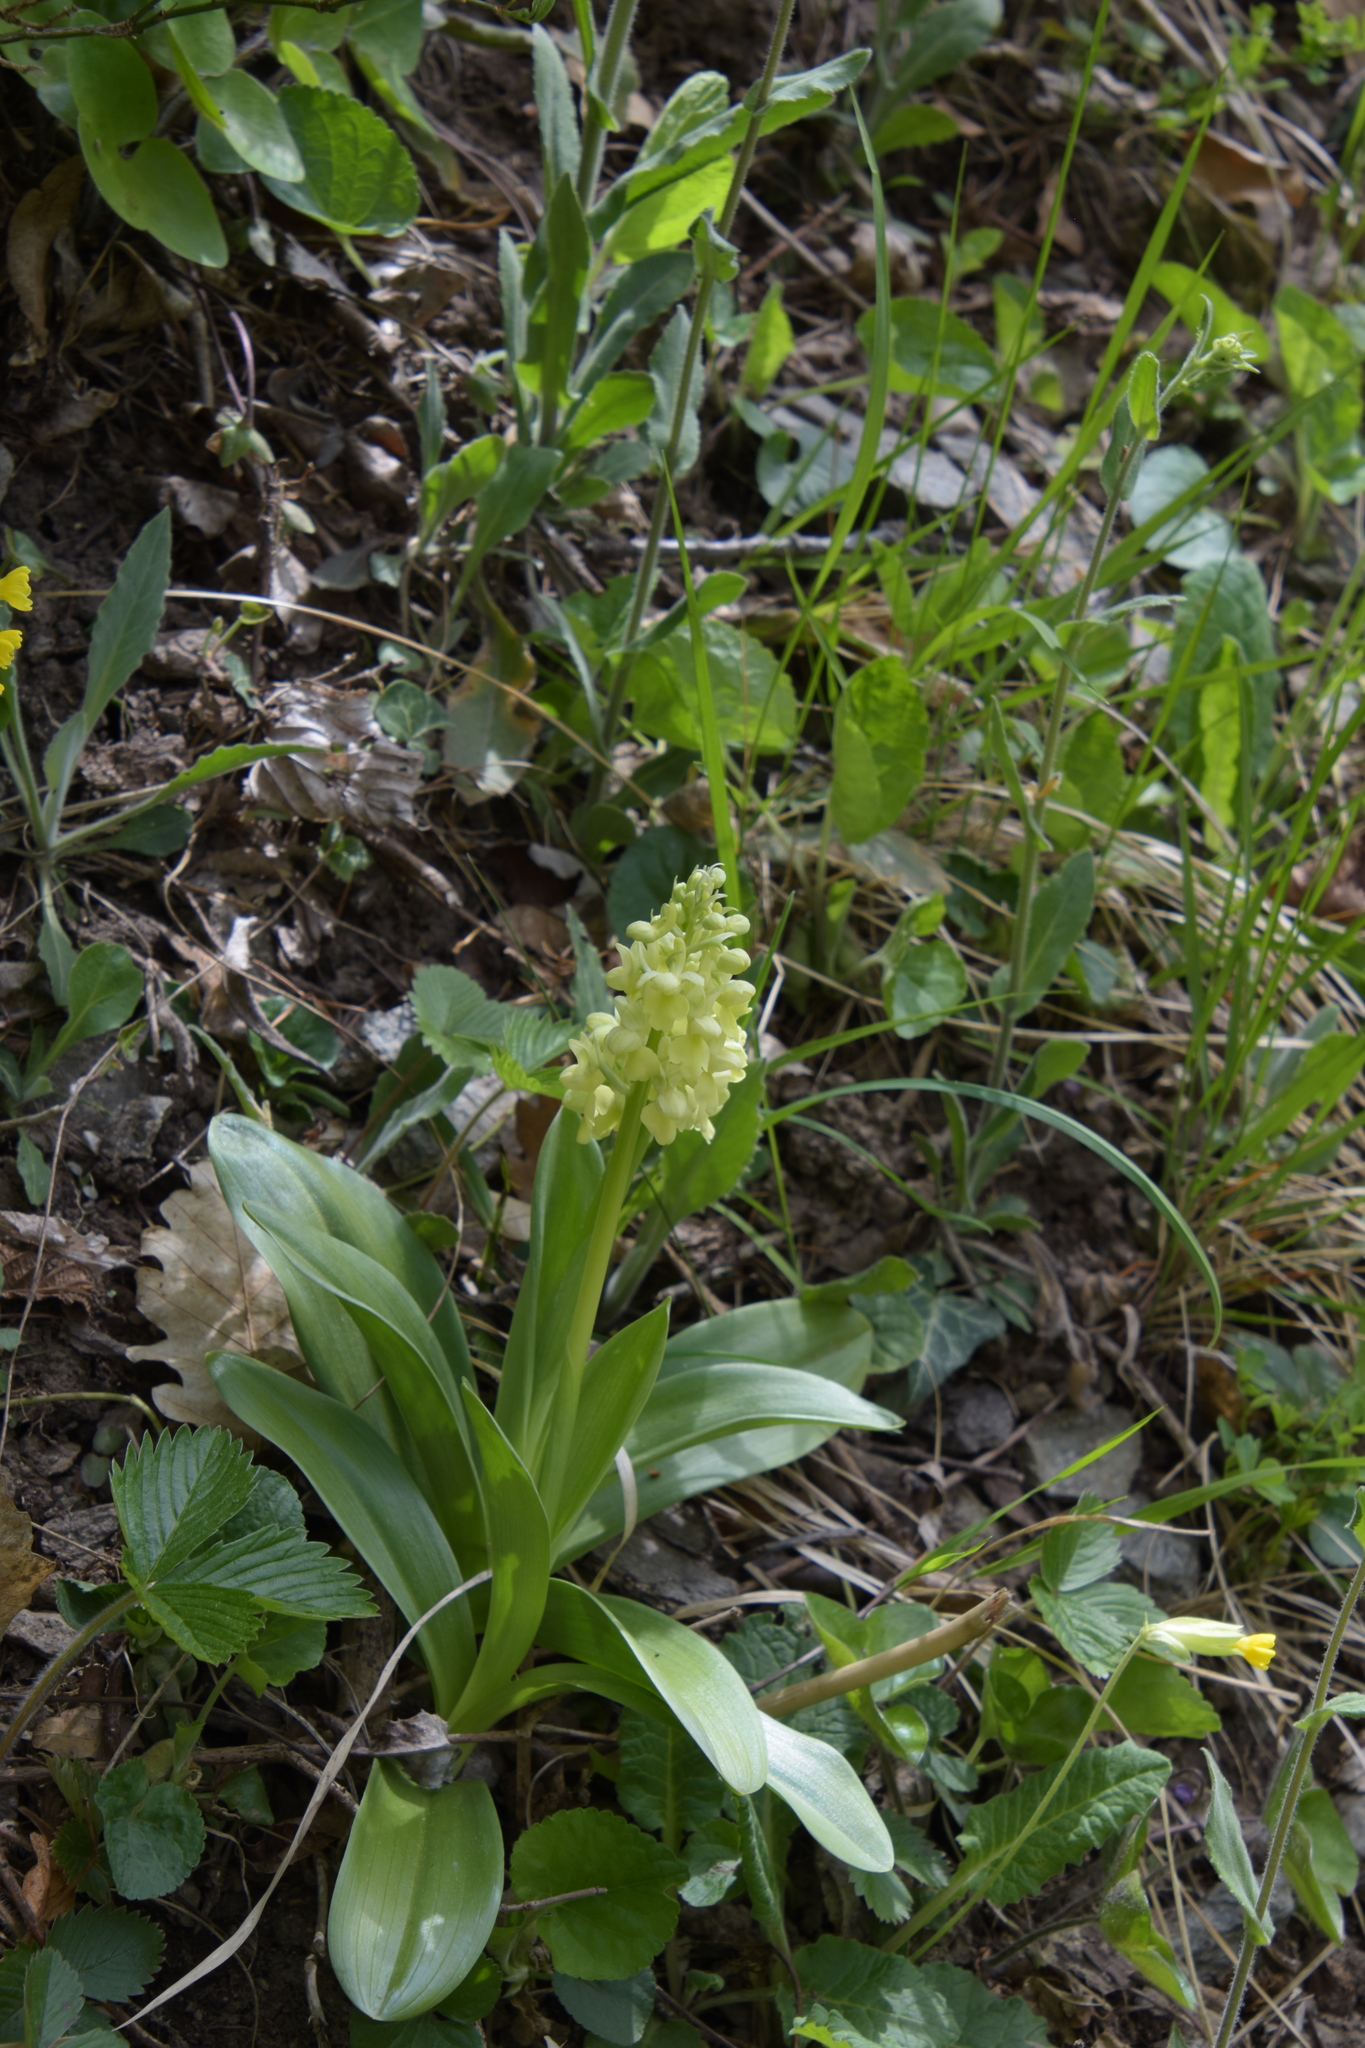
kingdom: Plantae
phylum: Tracheophyta
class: Liliopsida
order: Asparagales
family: Orchidaceae
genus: Orchis
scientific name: Orchis pallens
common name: Pale-flowered orchid
